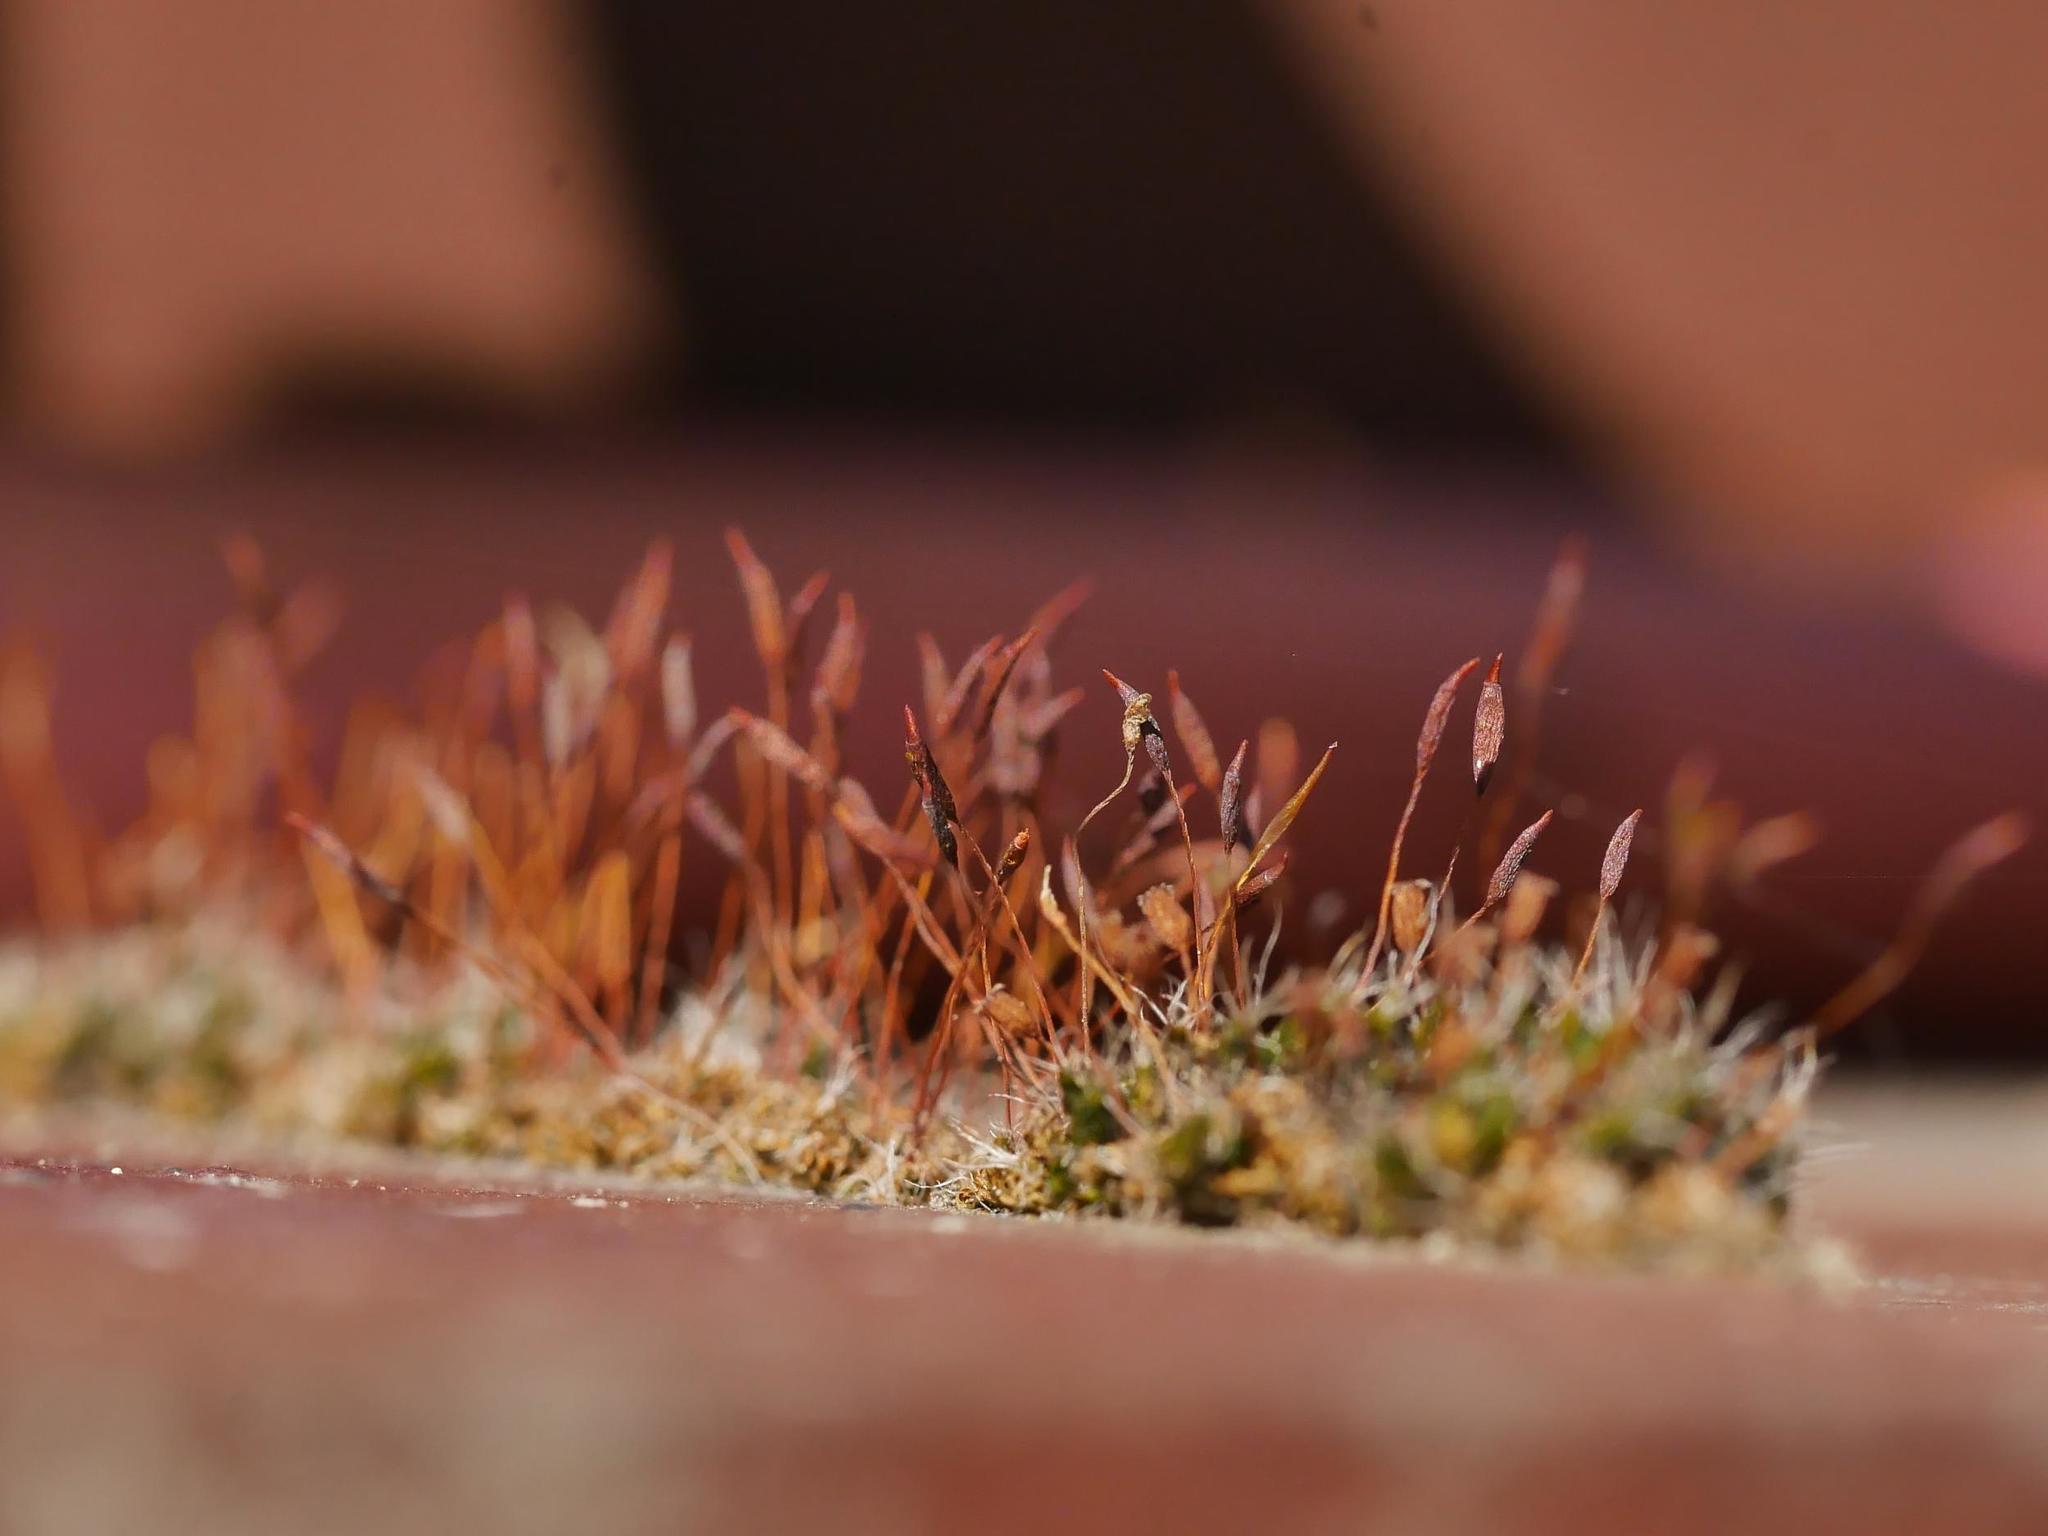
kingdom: Plantae
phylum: Bryophyta
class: Bryopsida
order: Pottiales
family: Pottiaceae
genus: Tortula
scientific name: Tortula muralis
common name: Wall screw-moss
